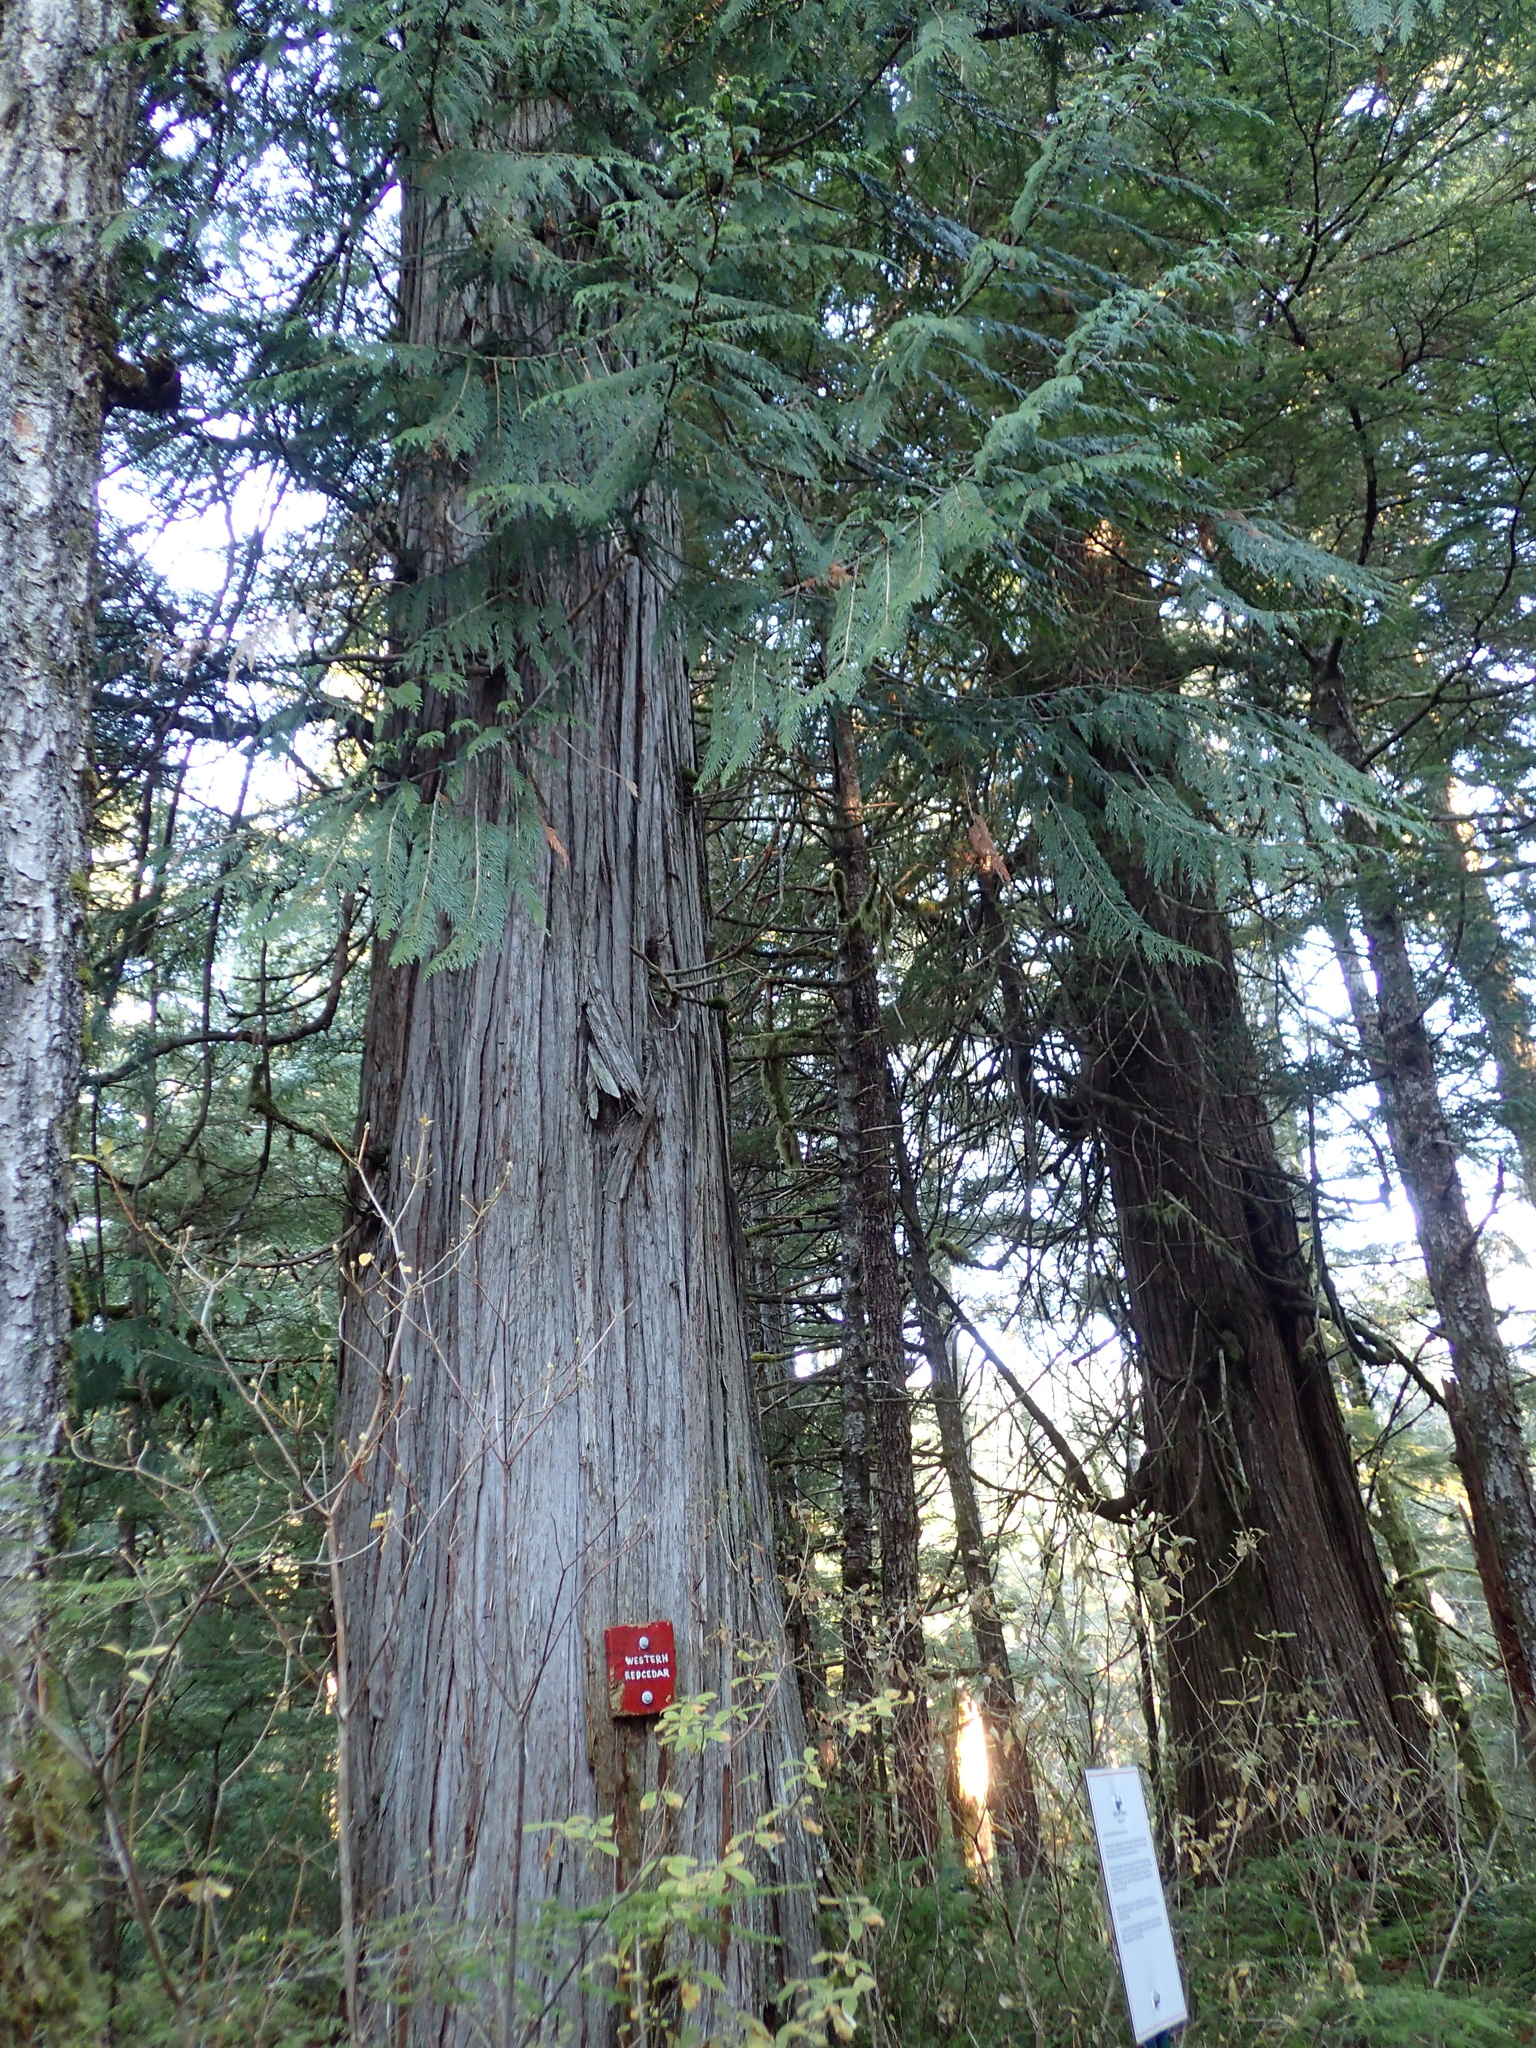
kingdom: Plantae
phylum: Tracheophyta
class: Pinopsida
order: Pinales
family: Cupressaceae
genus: Thuja
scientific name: Thuja plicata
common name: Western red-cedar
